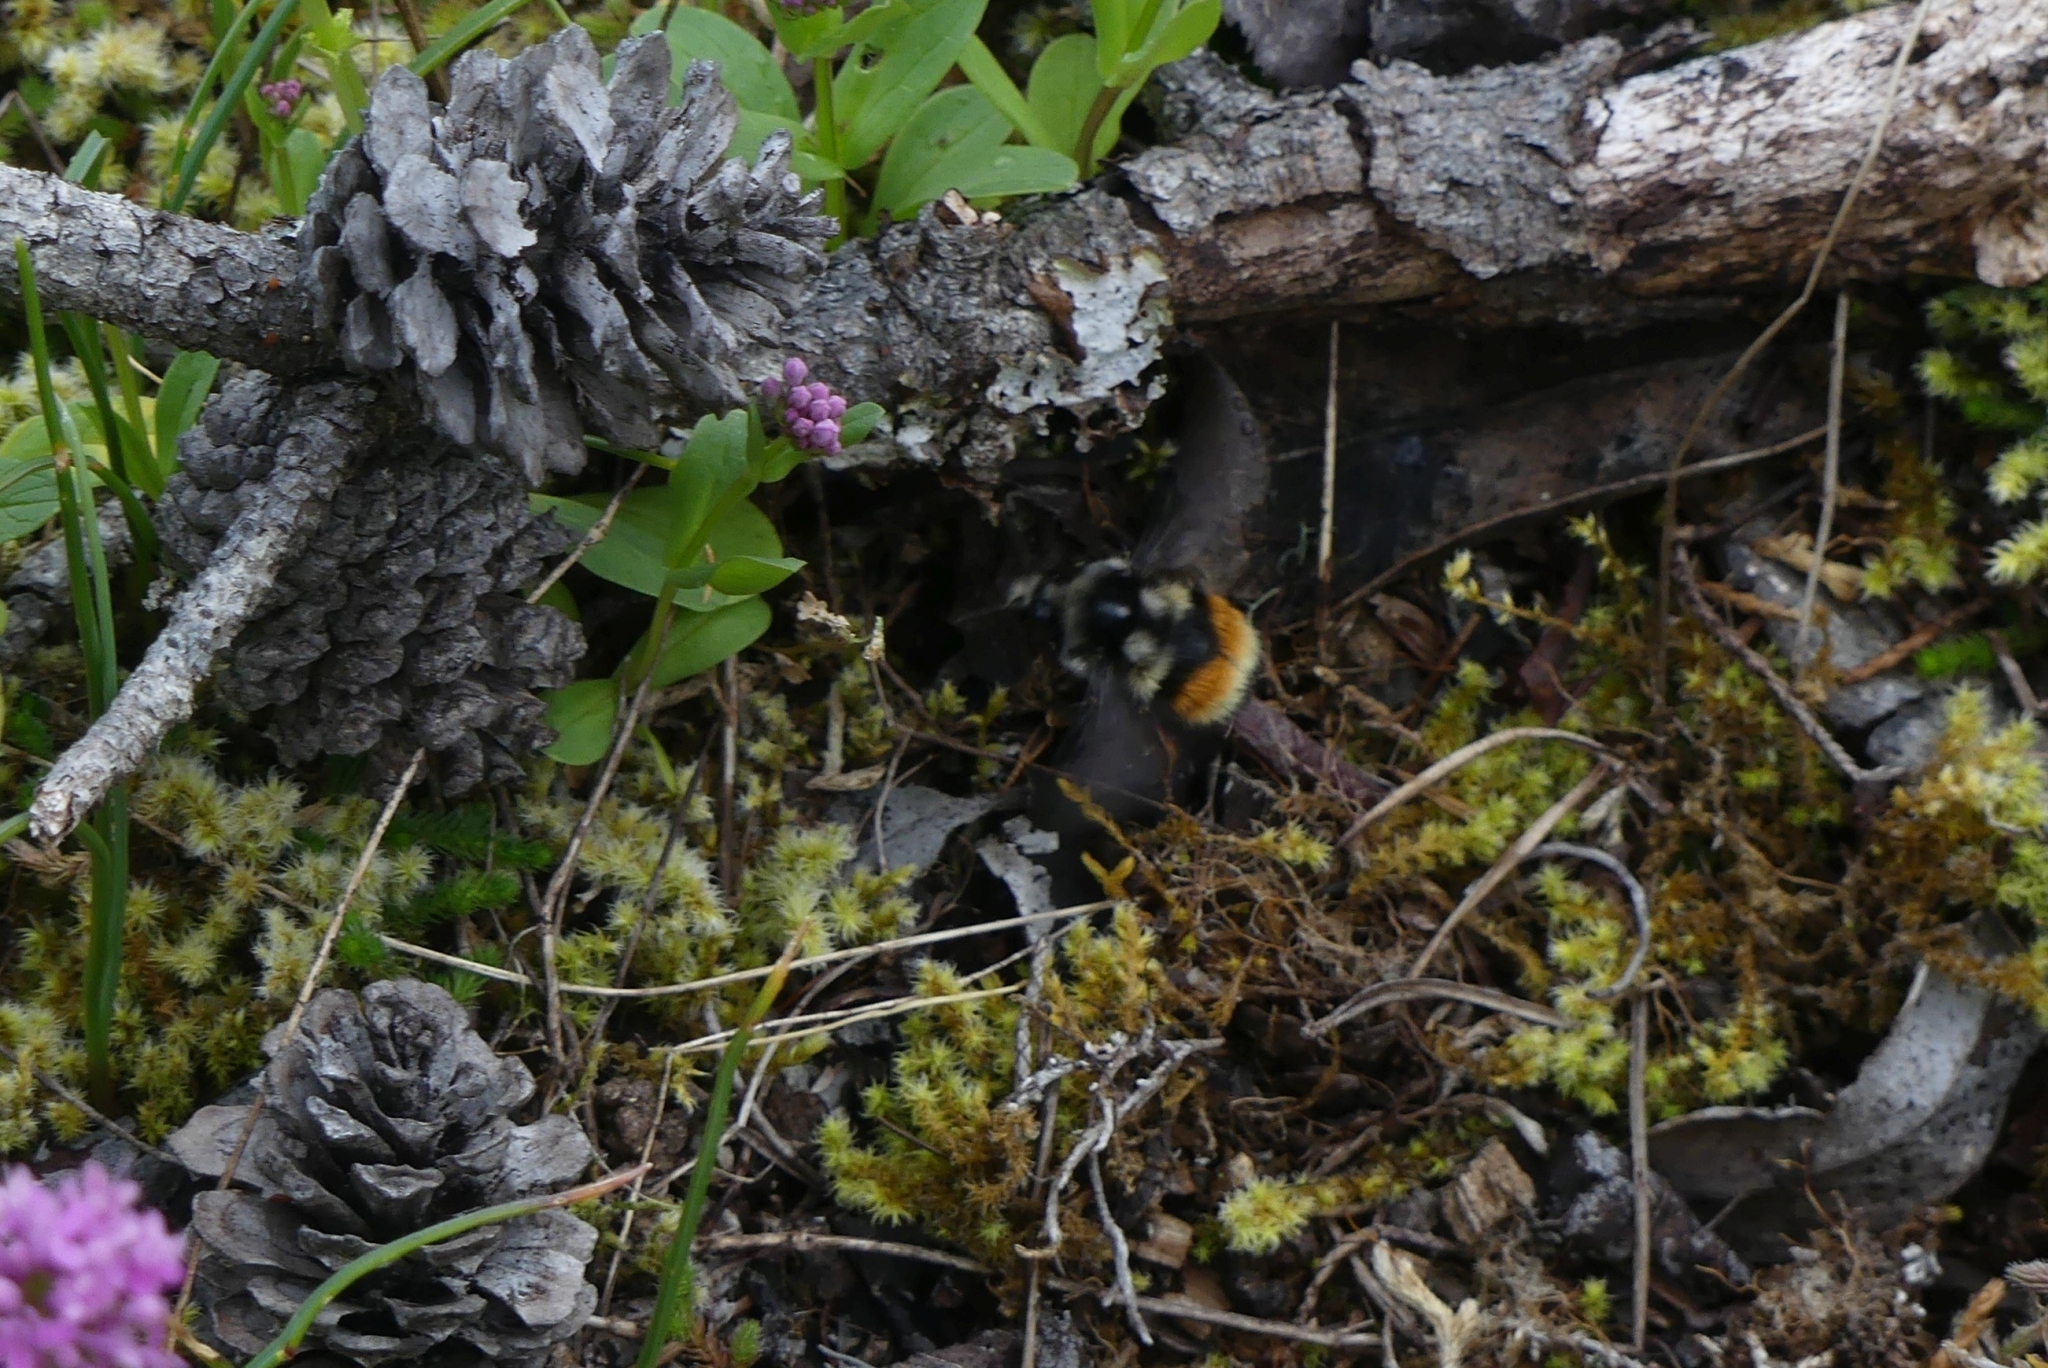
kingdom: Animalia
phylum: Arthropoda
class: Insecta
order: Hymenoptera
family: Apidae
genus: Bombus
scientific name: Bombus vancouverensis
